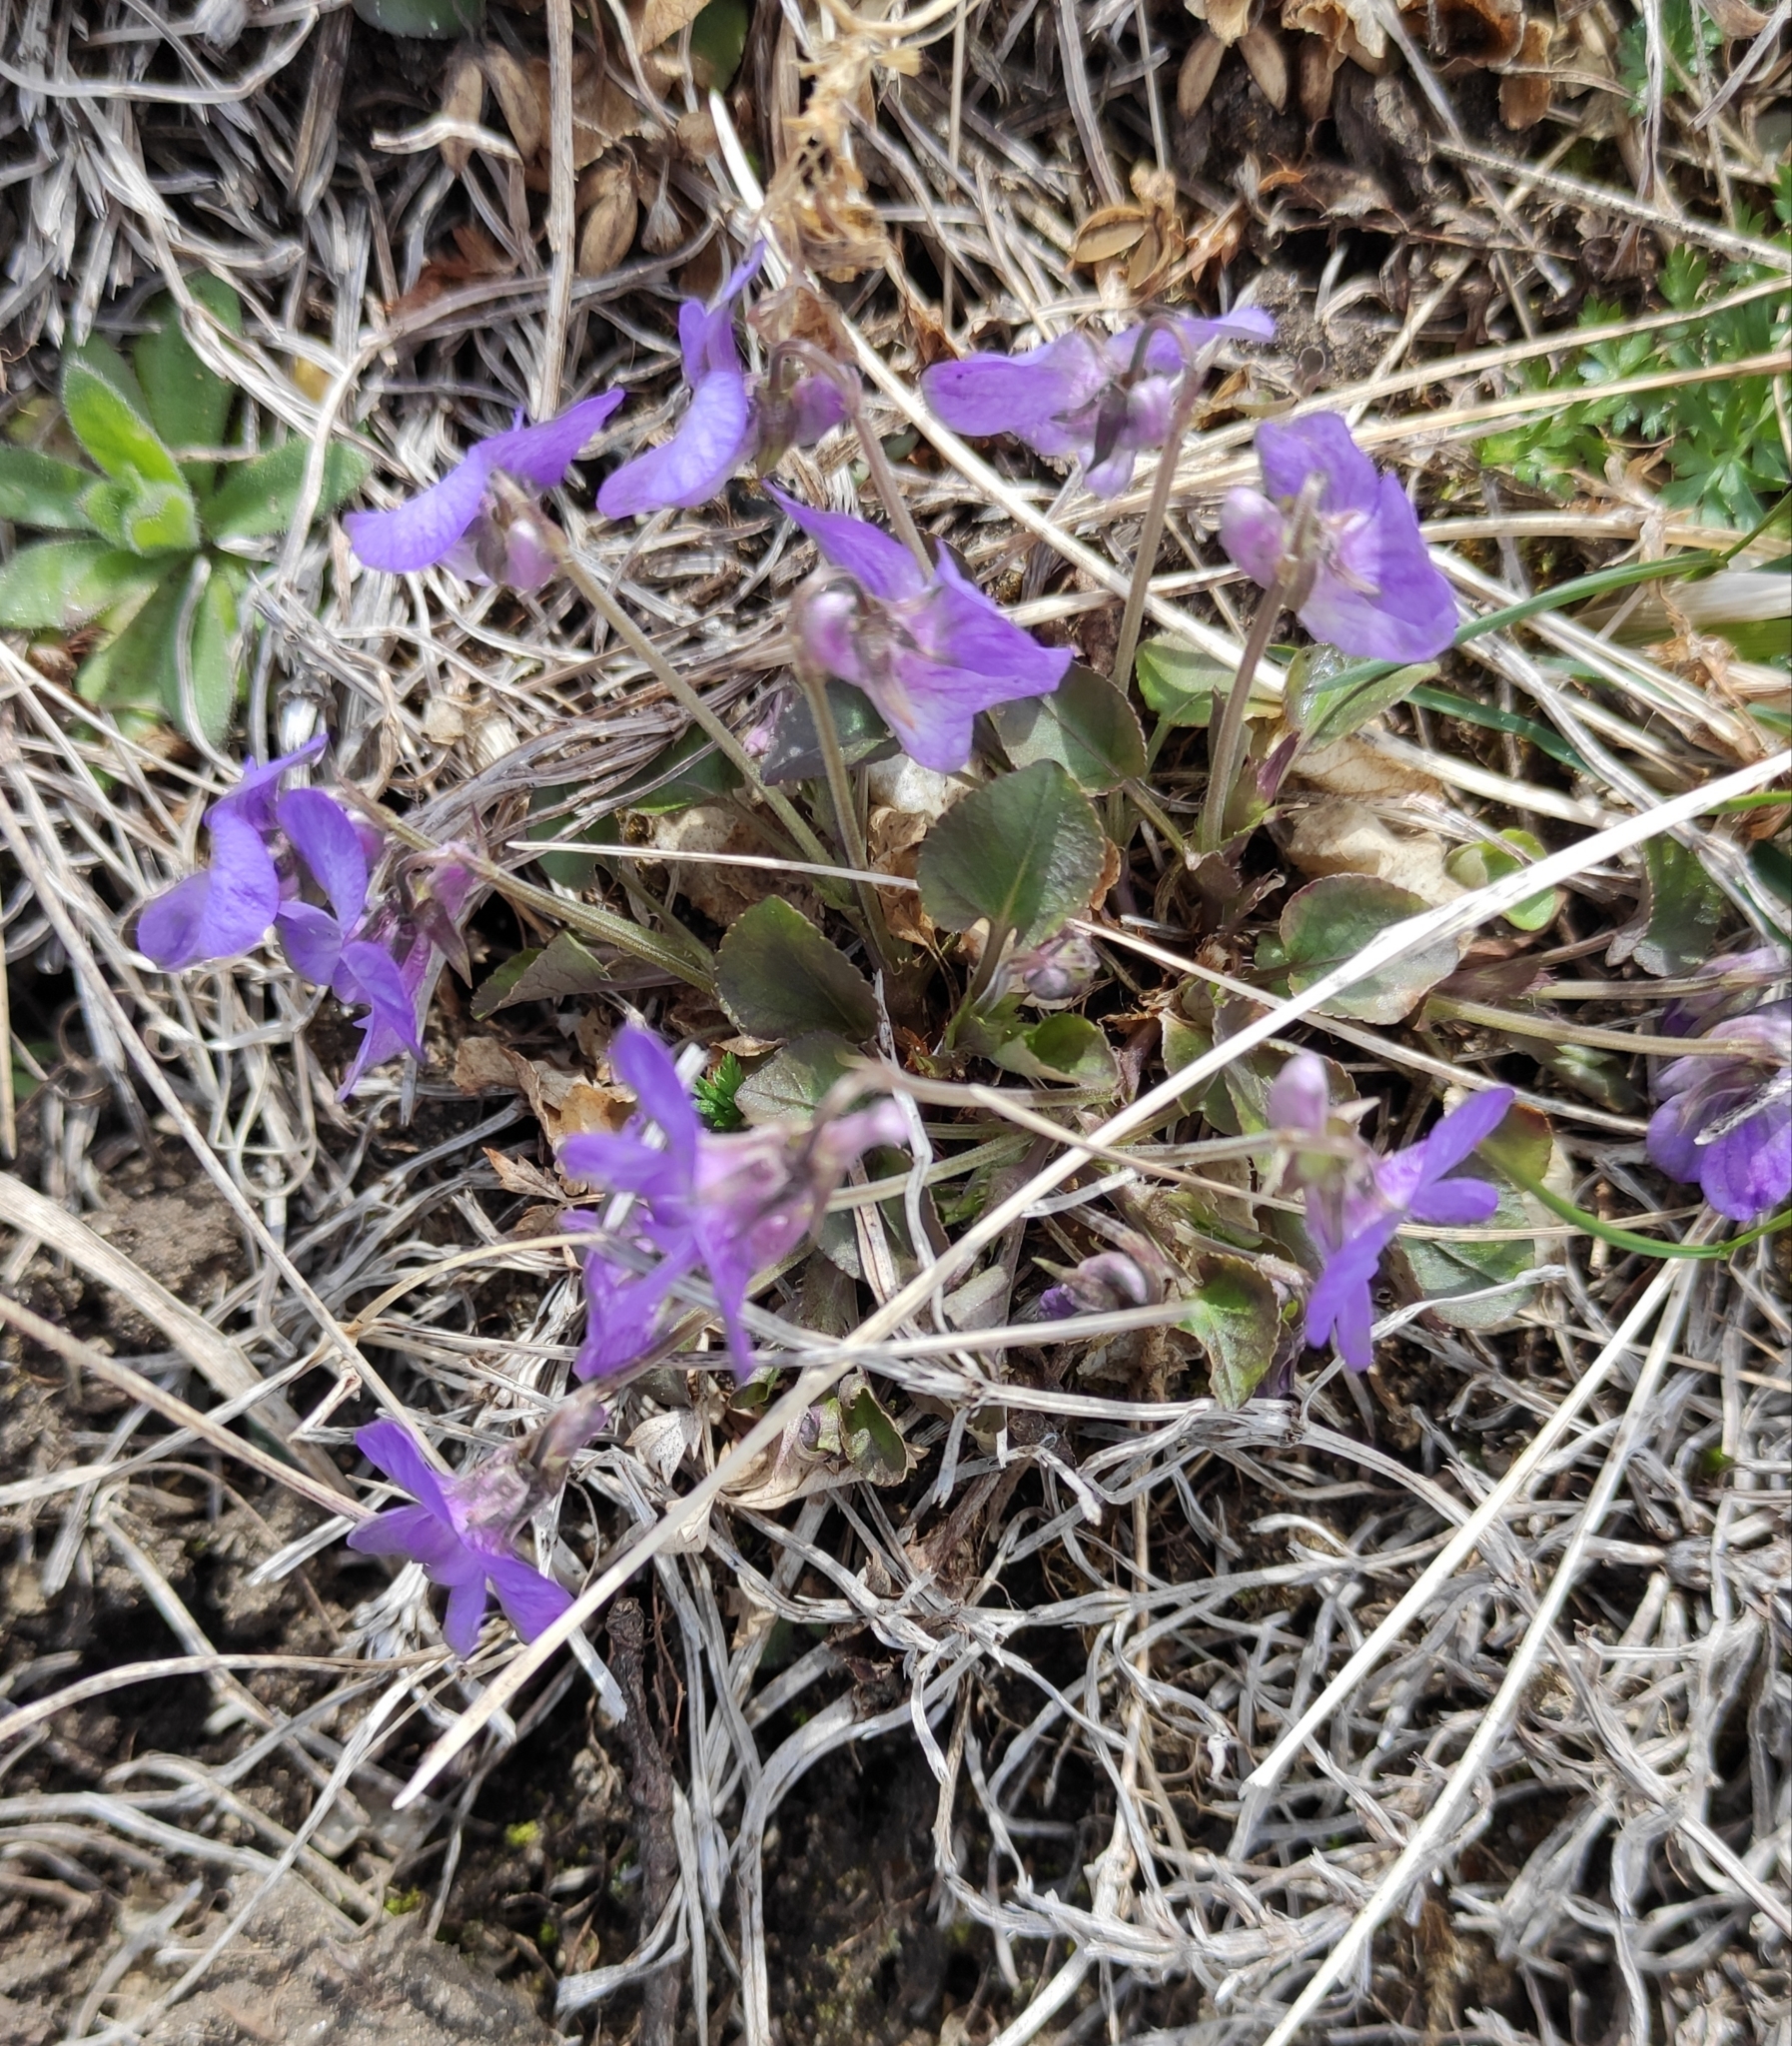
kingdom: Plantae
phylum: Tracheophyta
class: Magnoliopsida
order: Malpighiales
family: Violaceae
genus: Viola
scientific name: Viola rupestris
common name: Teesdale violet
